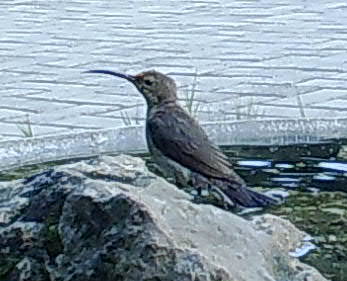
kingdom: Animalia
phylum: Chordata
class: Aves
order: Passeriformes
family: Nectariniidae
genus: Nectarinia
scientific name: Nectarinia famosa
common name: Malachite sunbird
